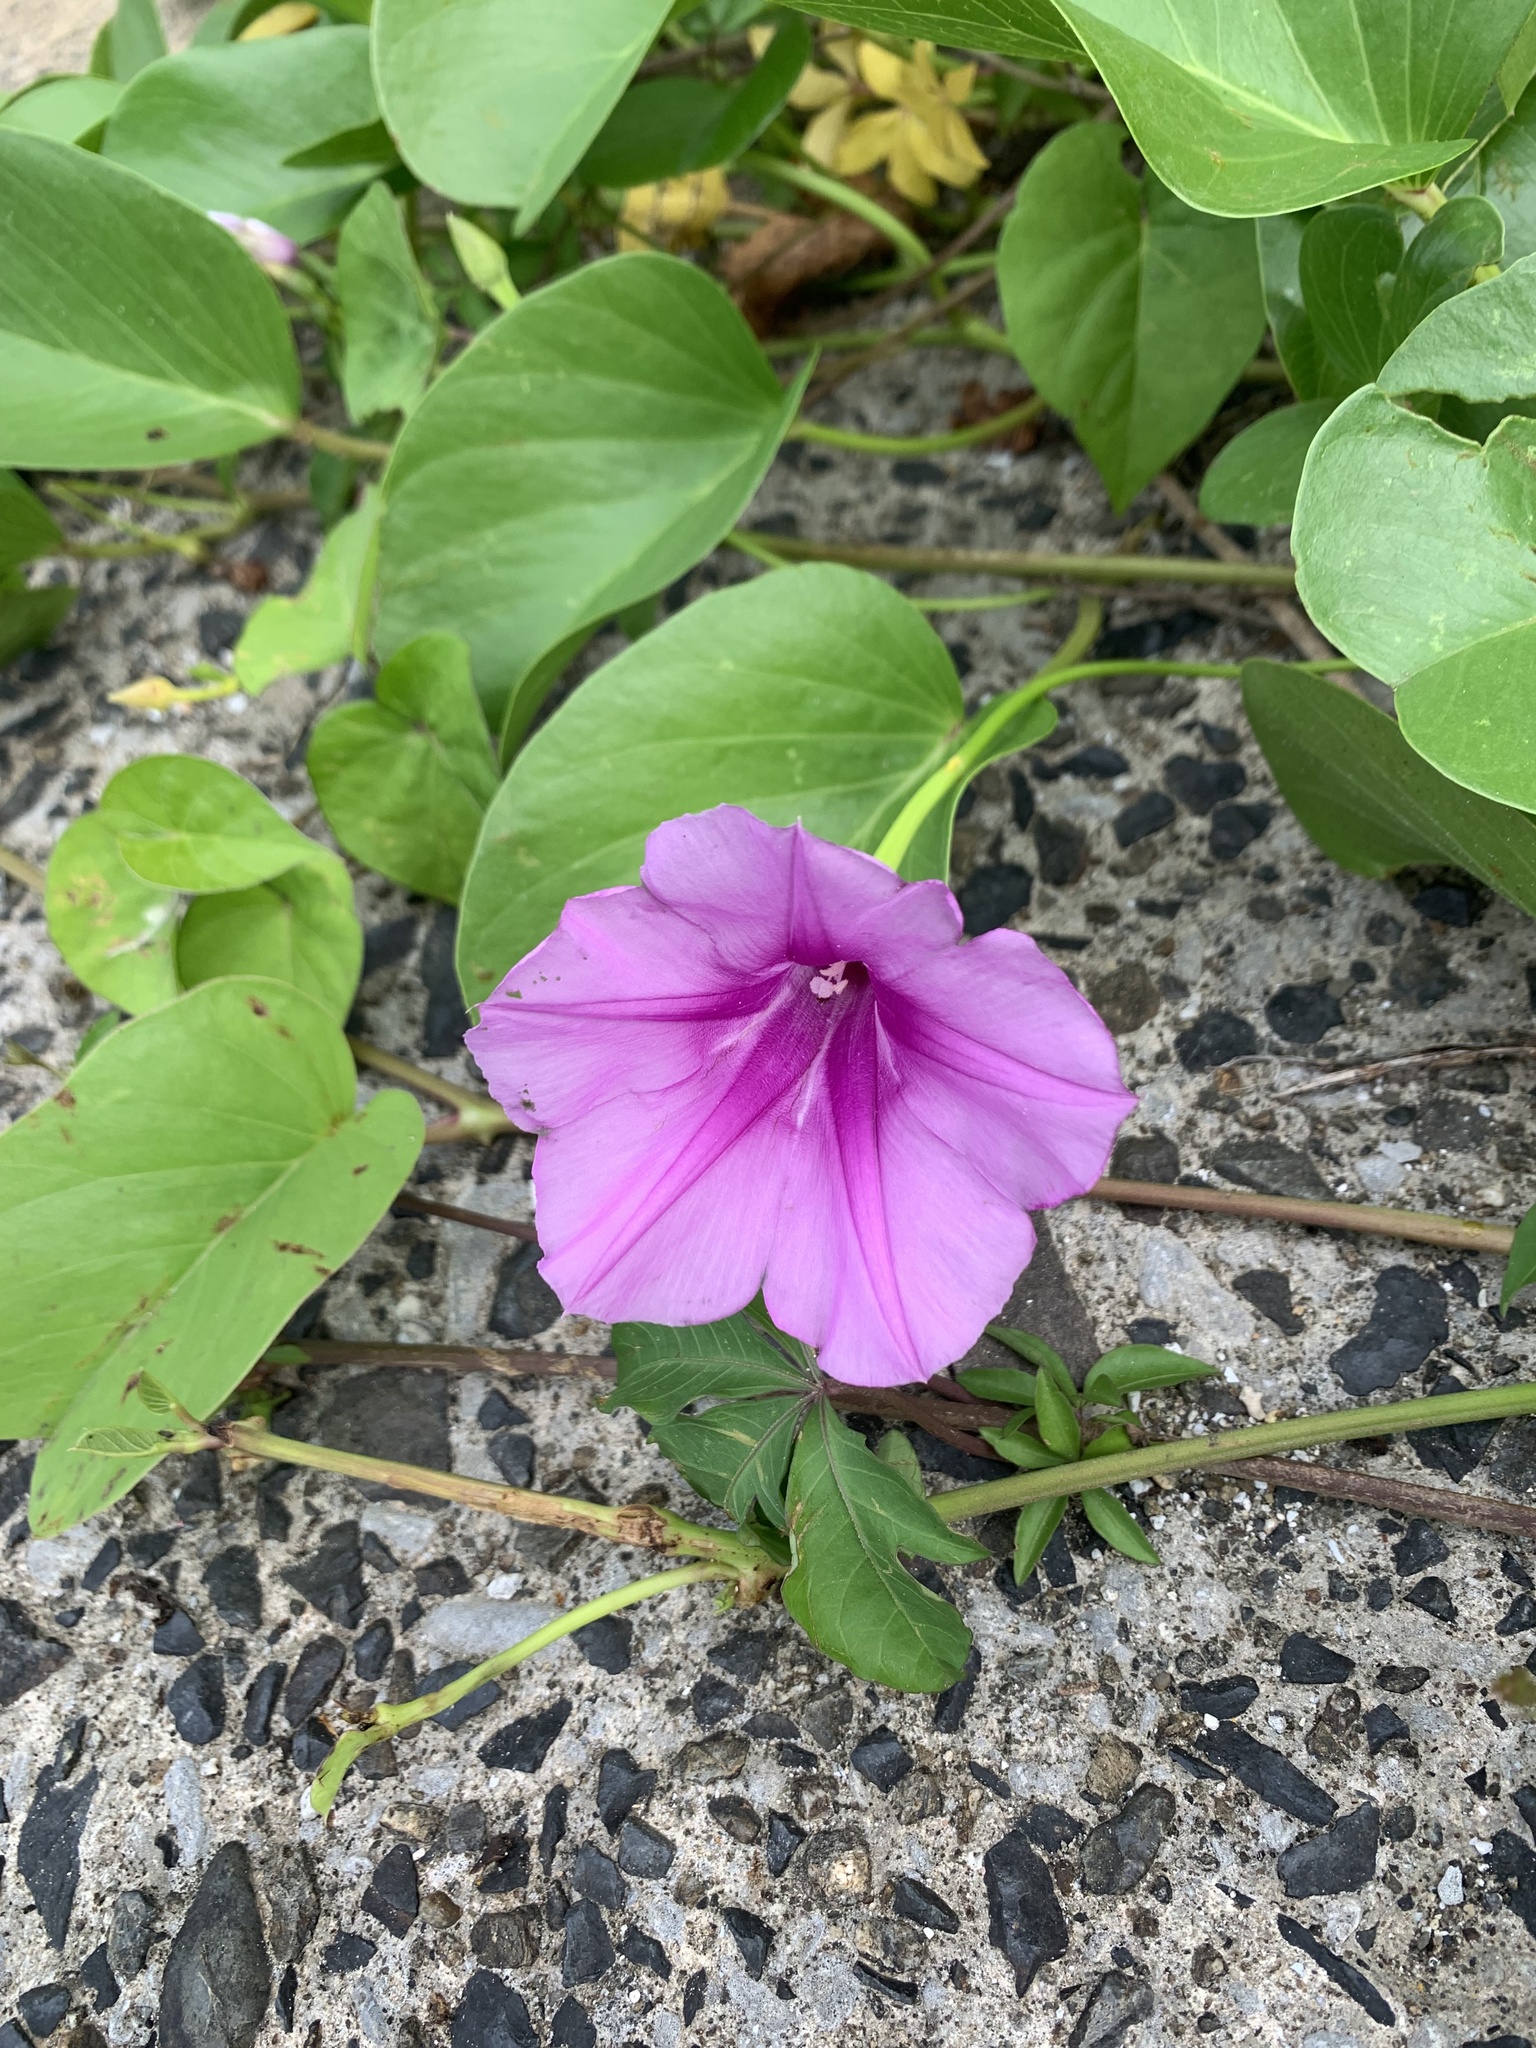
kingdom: Plantae
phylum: Tracheophyta
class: Magnoliopsida
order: Solanales
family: Convolvulaceae
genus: Ipomoea
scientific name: Ipomoea pes-caprae
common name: Beach morning glory
